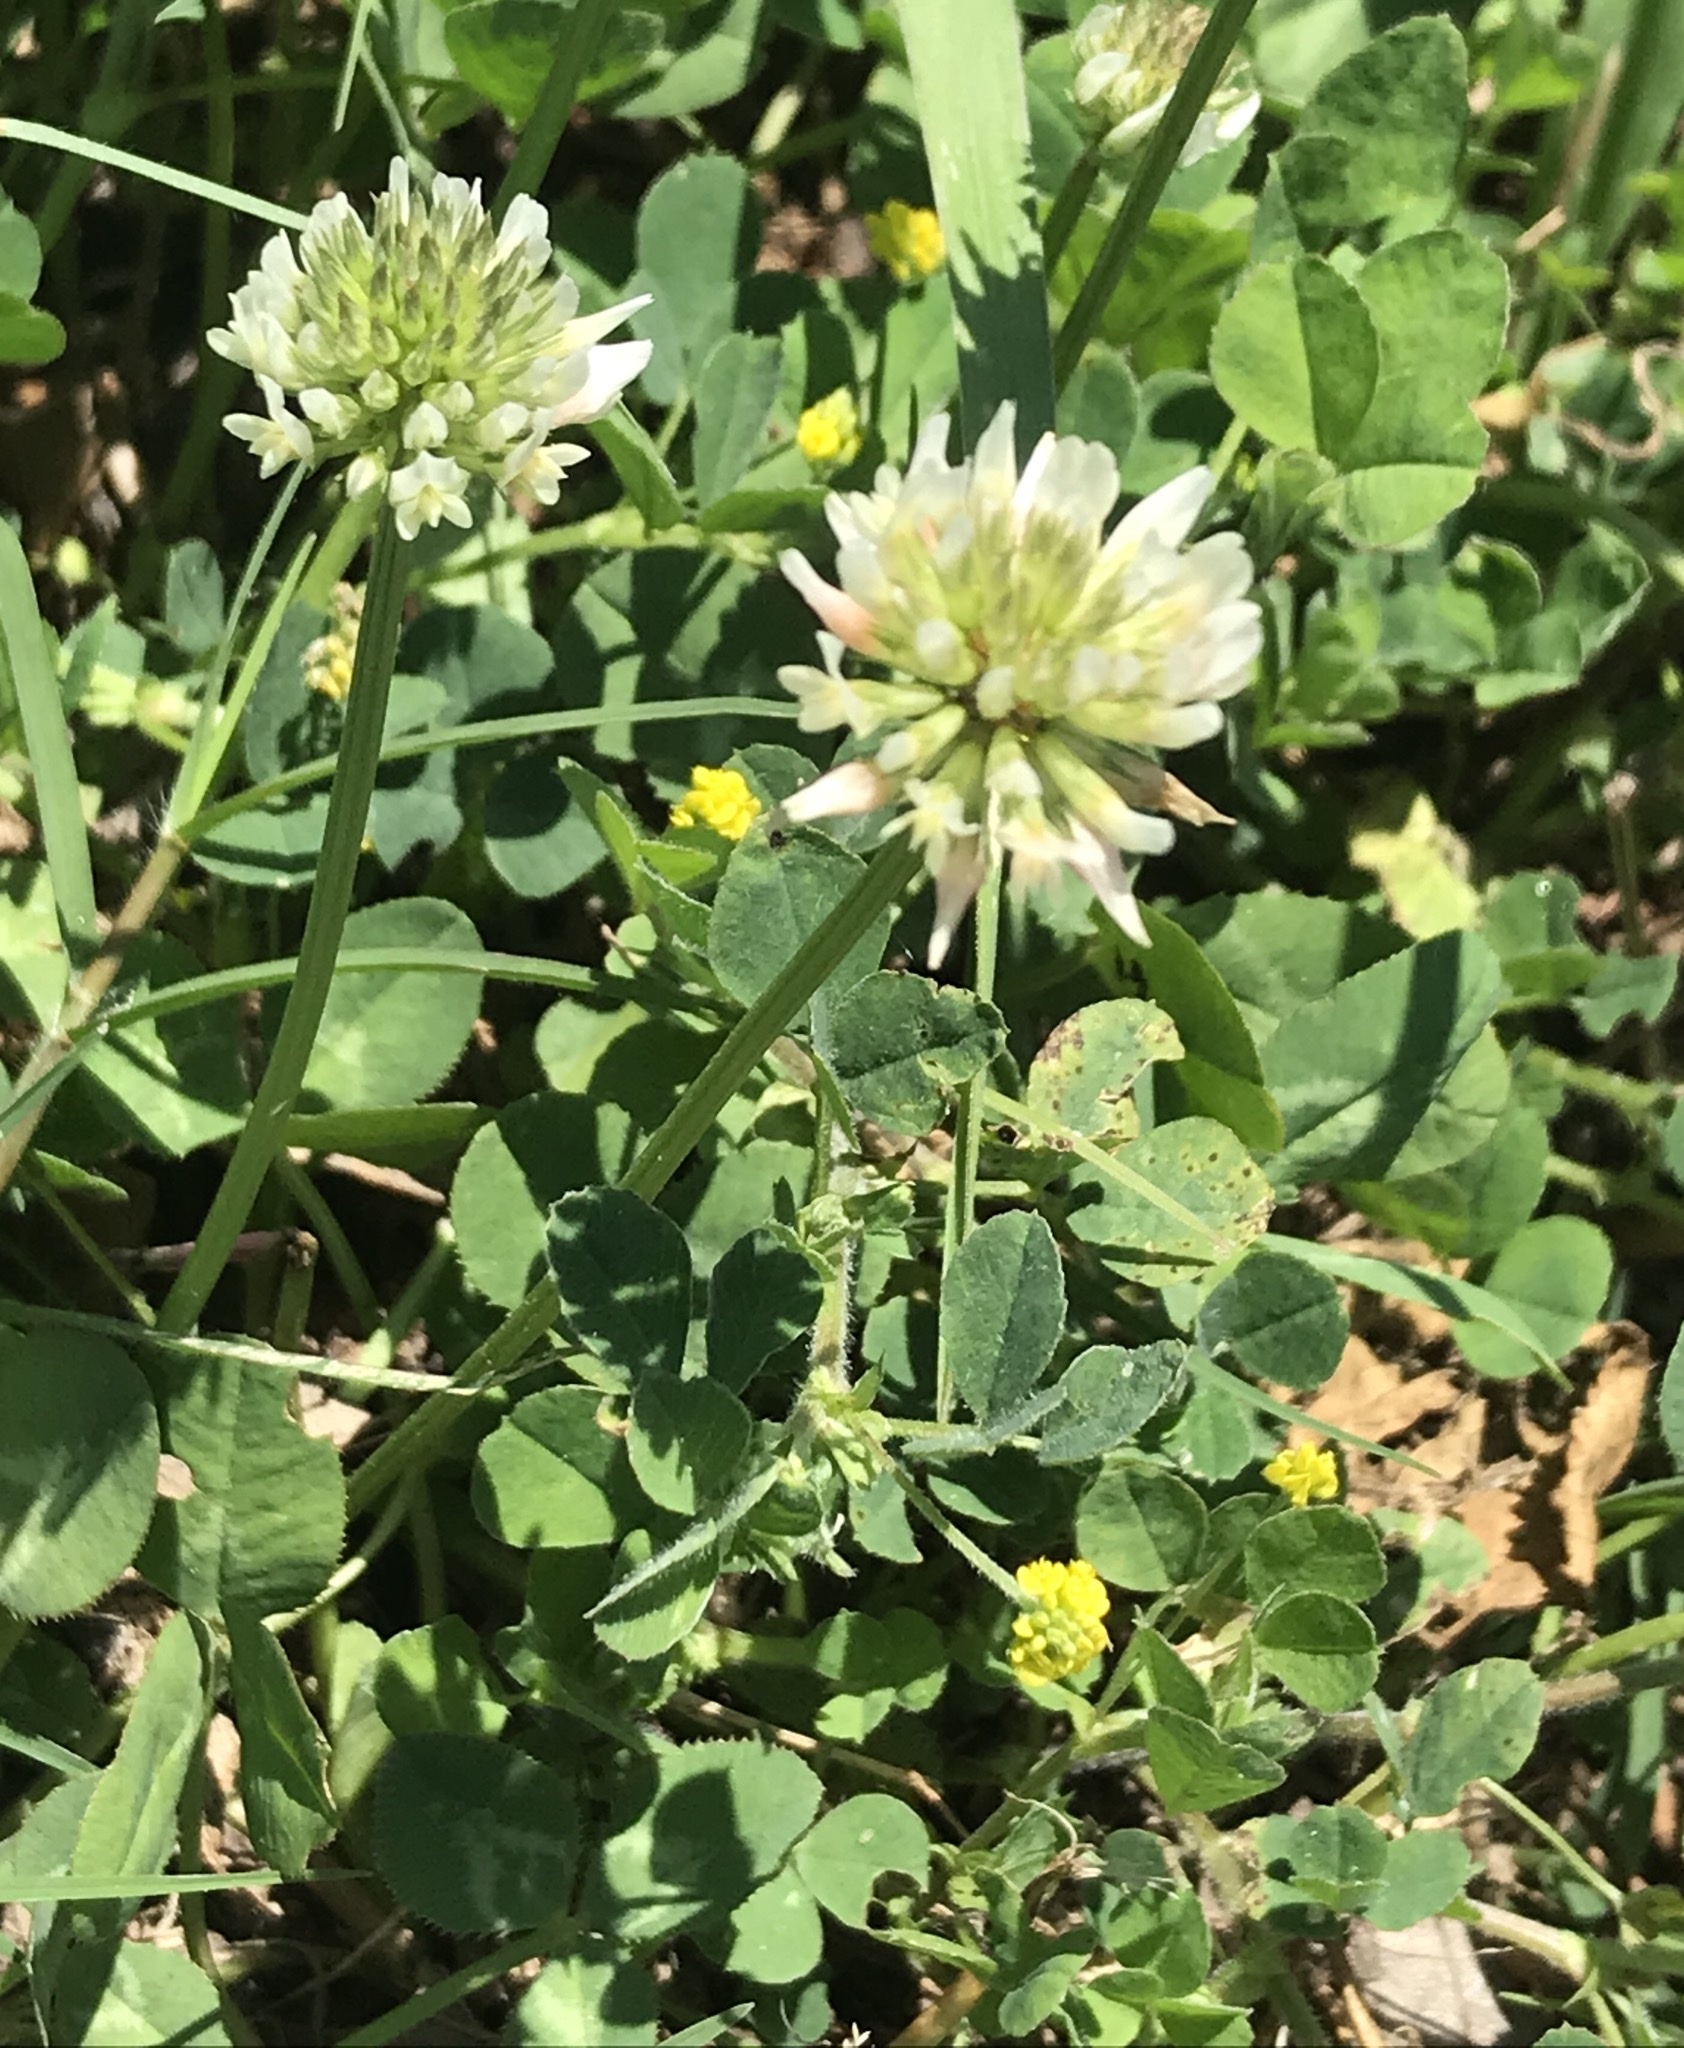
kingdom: Plantae
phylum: Tracheophyta
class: Magnoliopsida
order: Fabales
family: Fabaceae
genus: Trifolium
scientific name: Trifolium repens
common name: White clover
